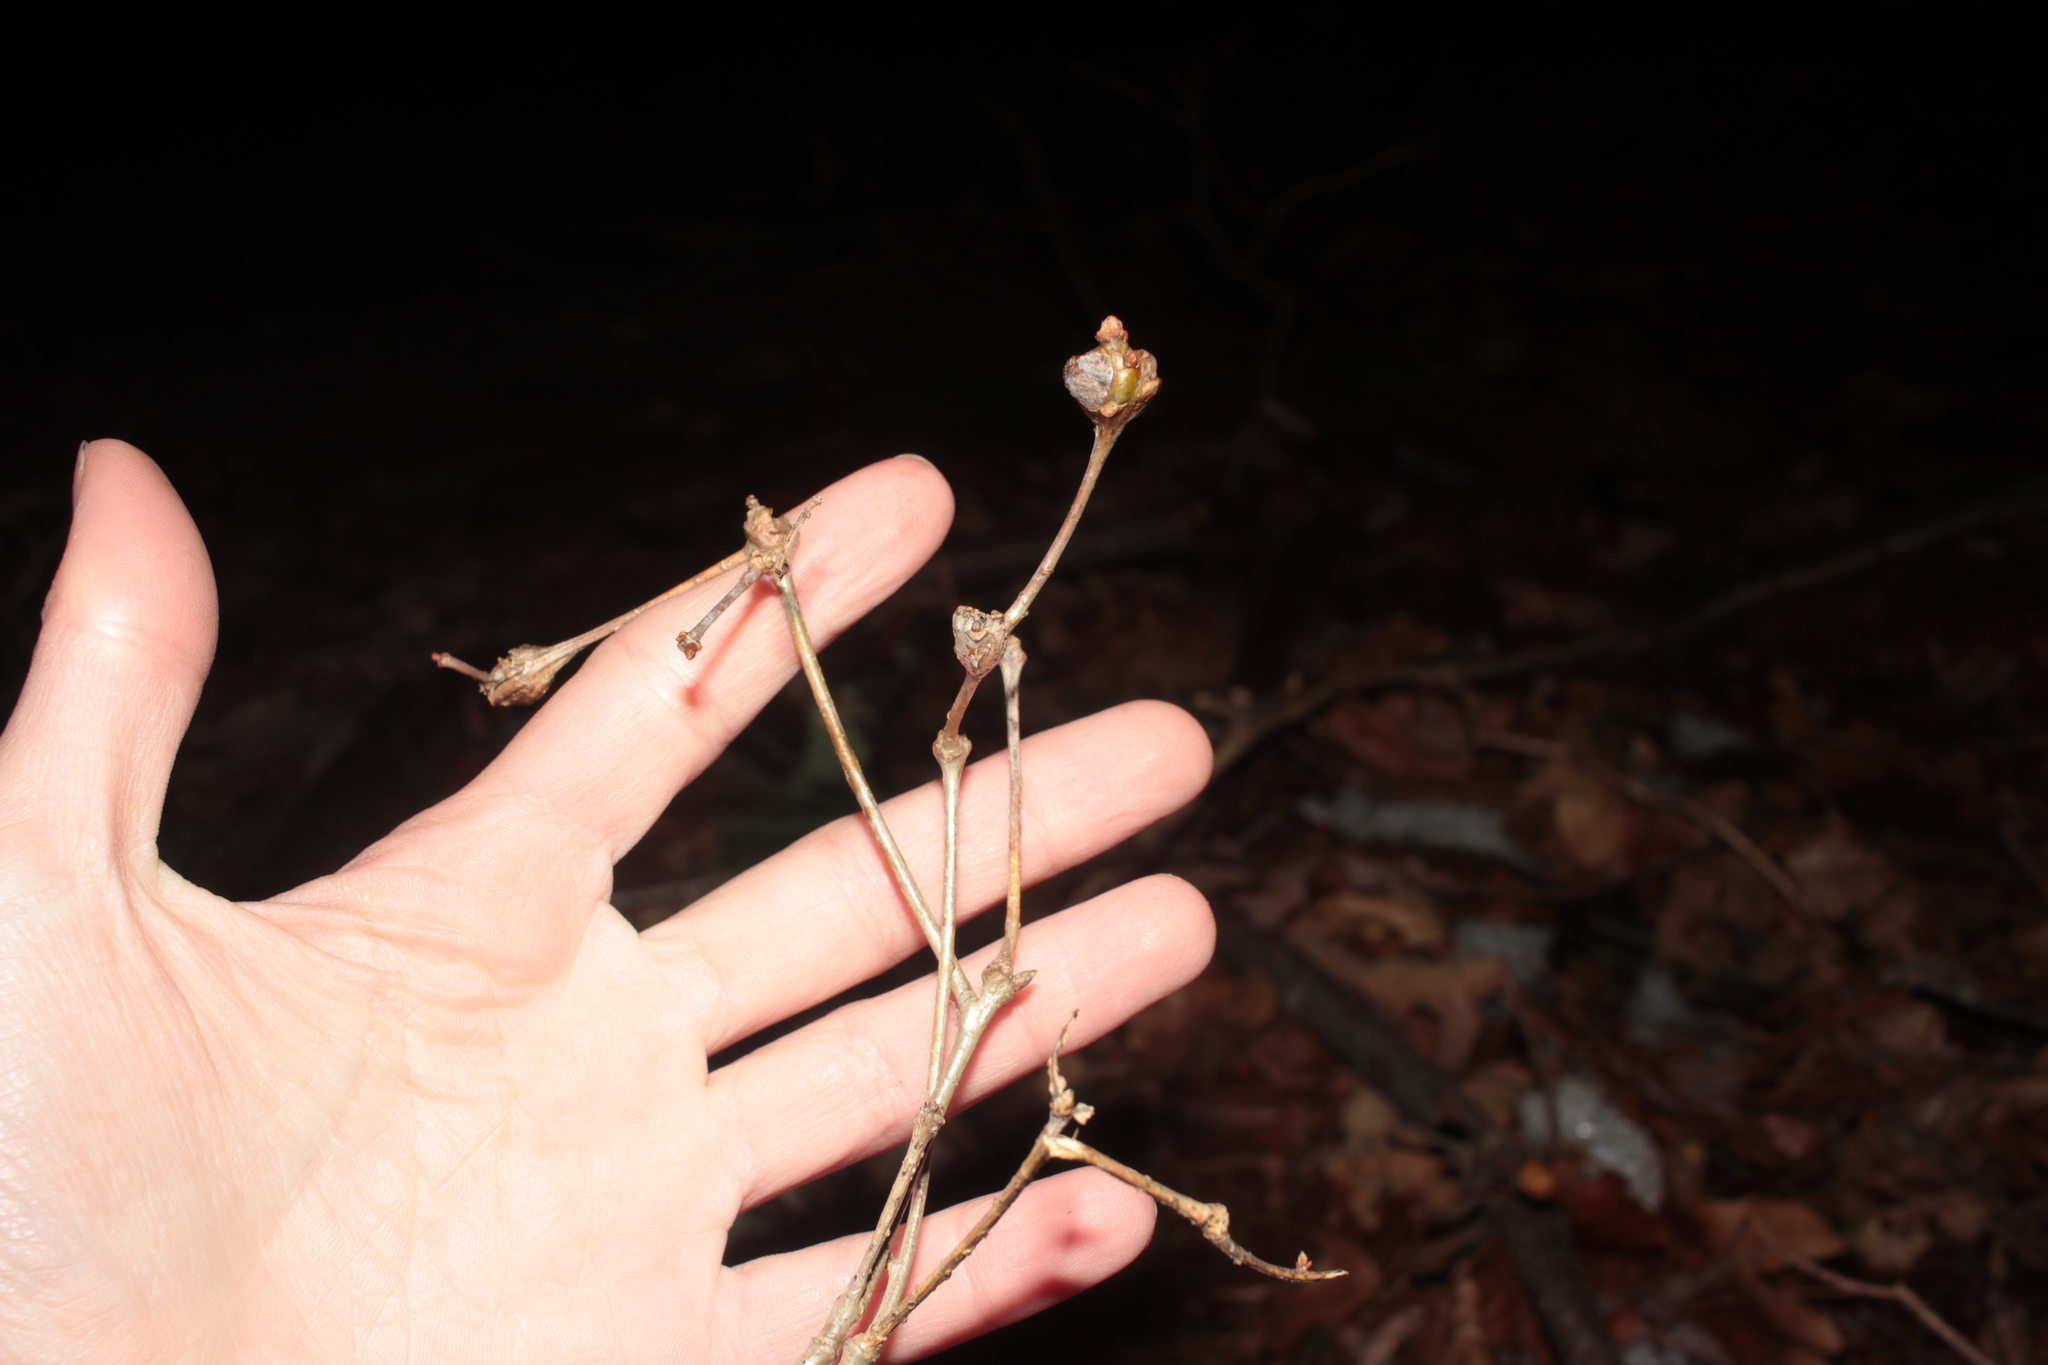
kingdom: Animalia
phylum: Arthropoda
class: Insecta
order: Hymenoptera
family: Cynipidae
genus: Callirhytis
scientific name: Callirhytis clavula
